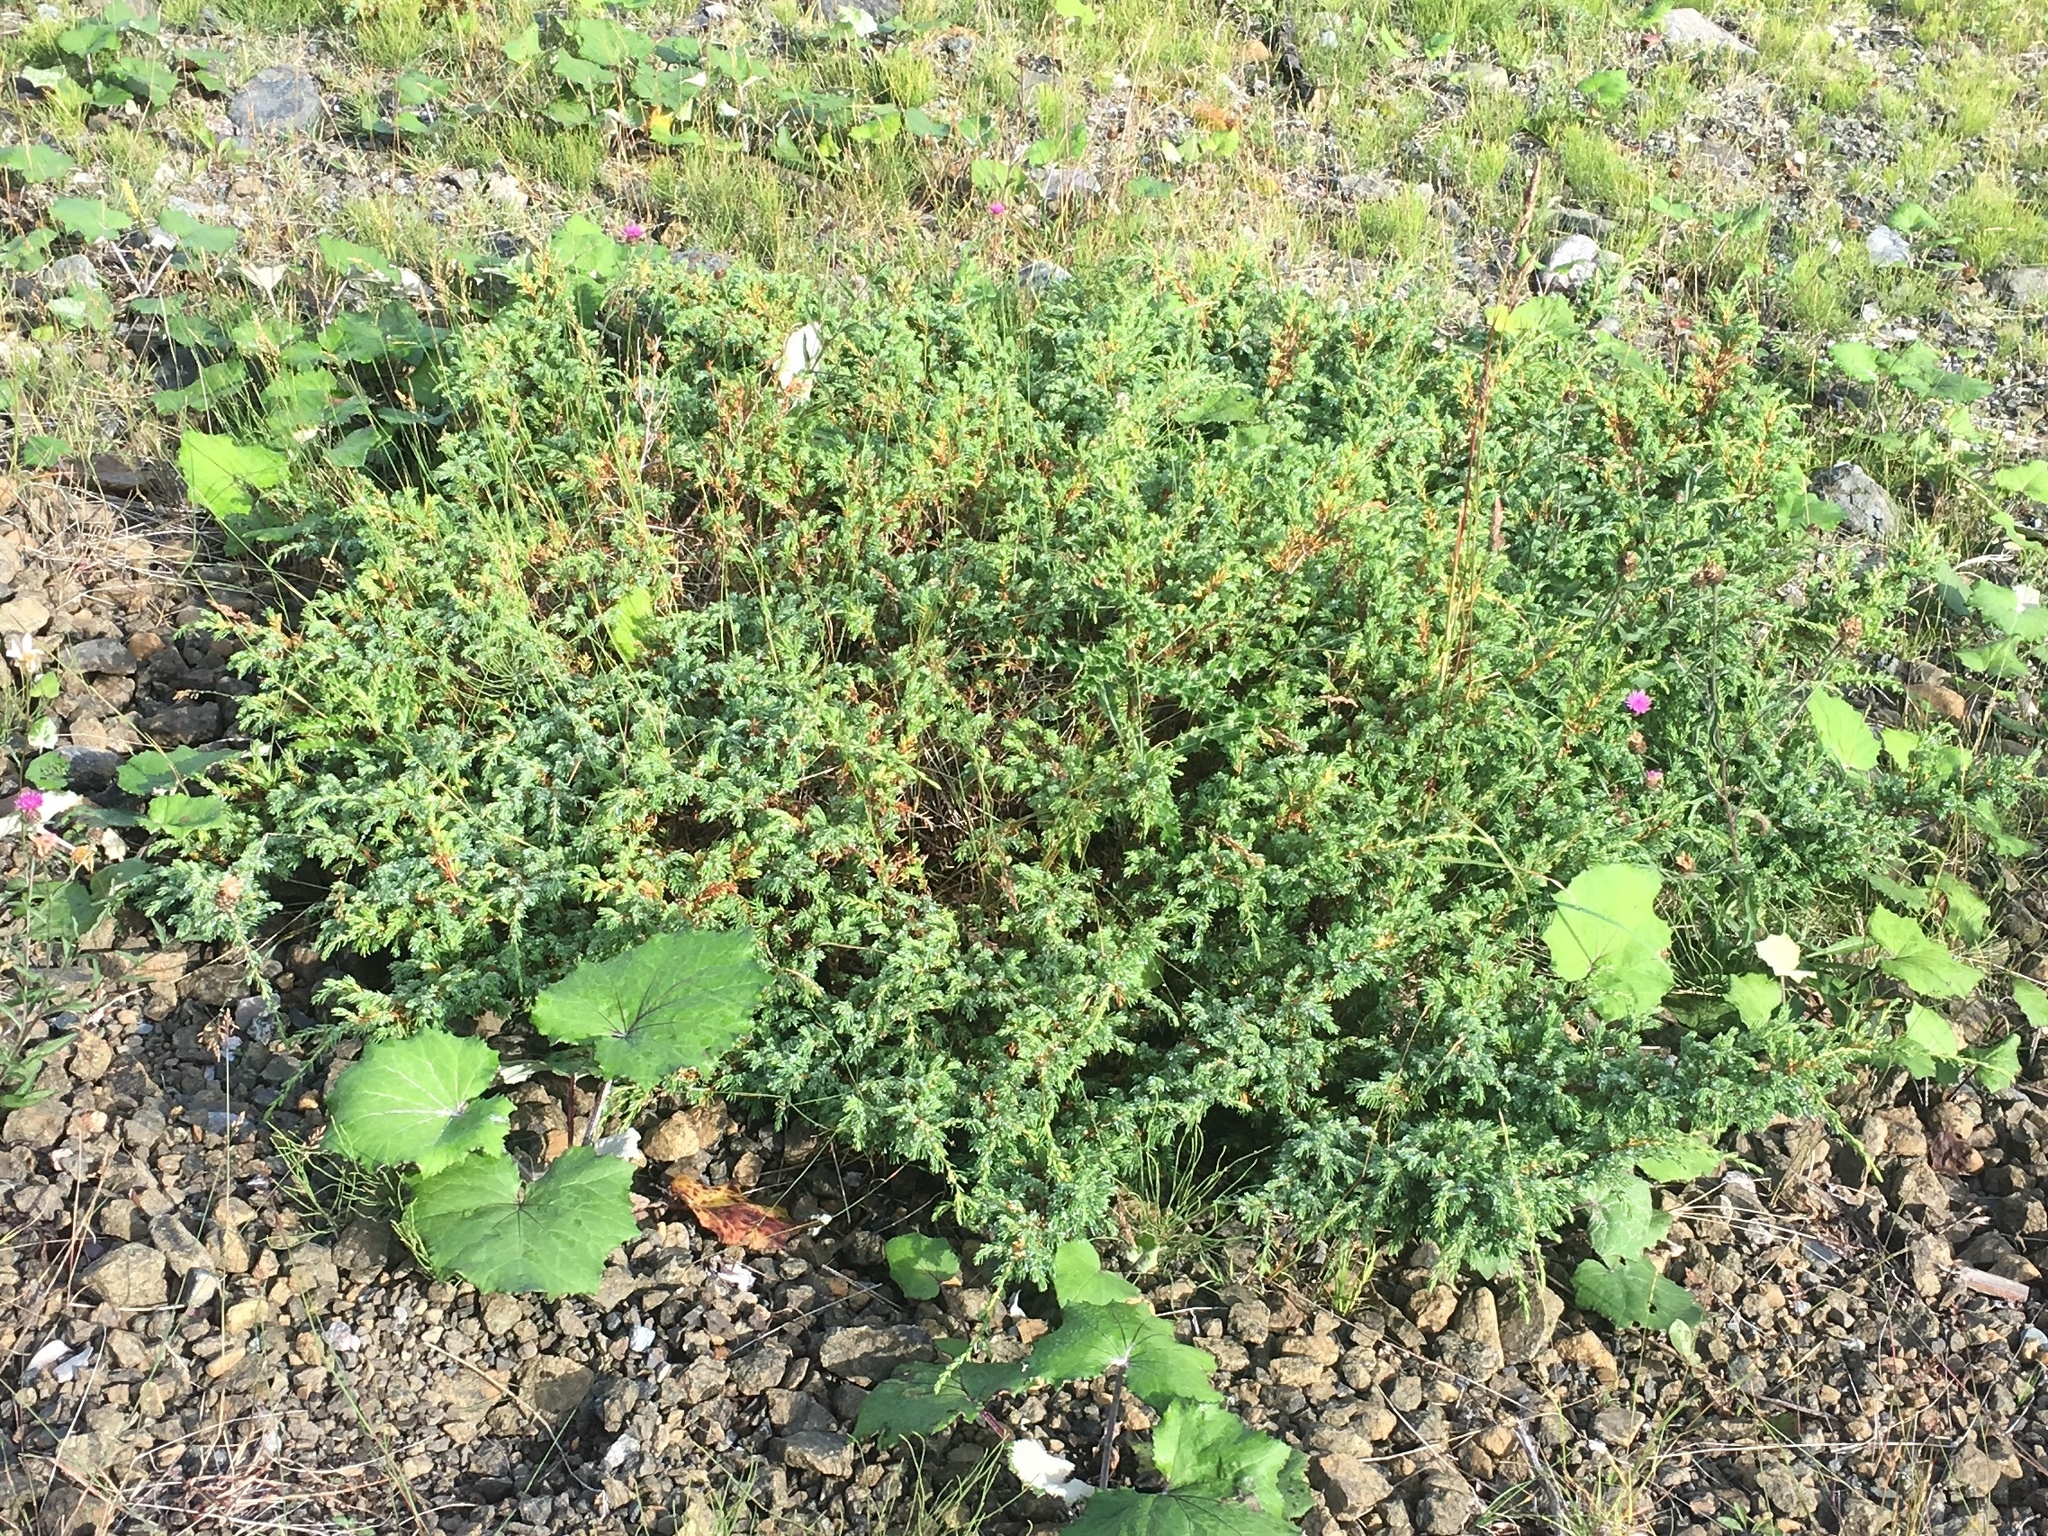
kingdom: Plantae
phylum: Tracheophyta
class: Pinopsida
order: Pinales
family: Cupressaceae
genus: Juniperus
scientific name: Juniperus communis
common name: Common juniper
